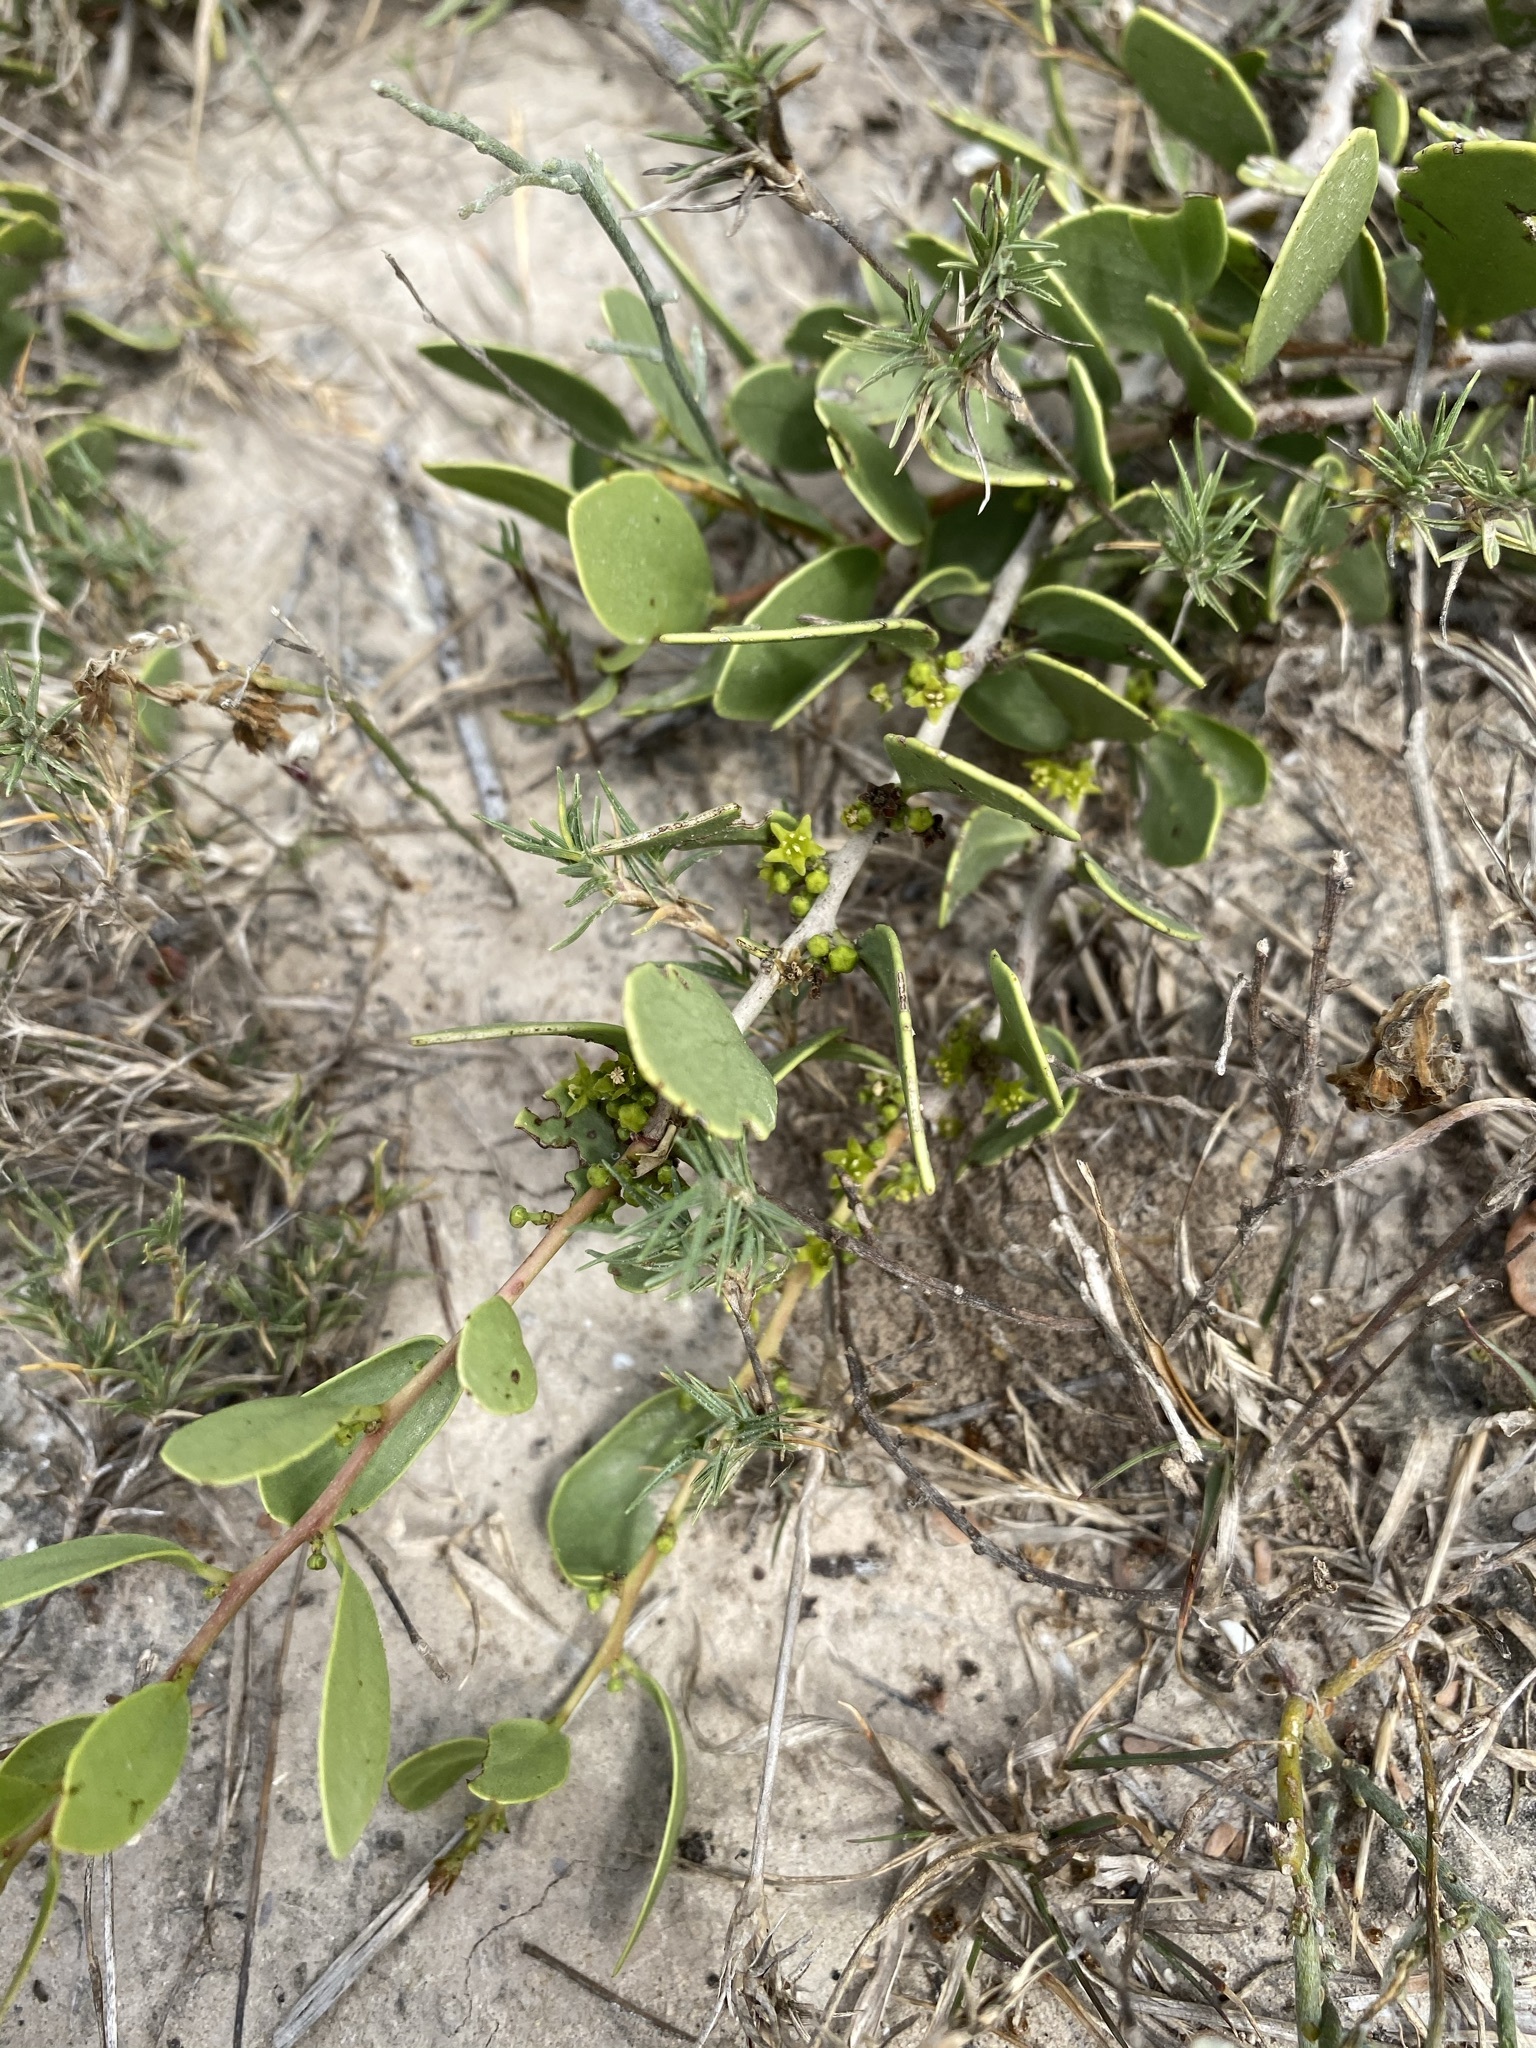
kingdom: Plantae
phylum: Tracheophyta
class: Magnoliopsida
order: Celastrales
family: Celastraceae
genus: Tricerma
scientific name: Tricerma phyllanthoides
